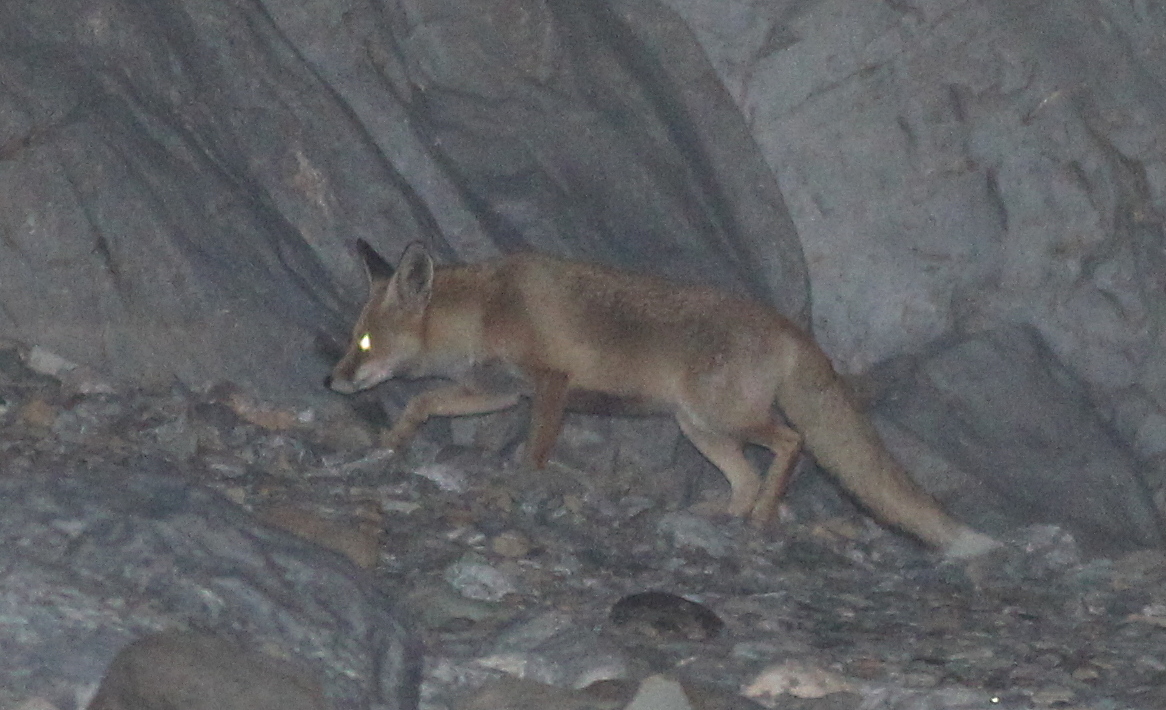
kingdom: Animalia
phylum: Chordata
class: Mammalia
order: Carnivora
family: Canidae
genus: Vulpes
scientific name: Vulpes vulpes
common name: Red fox
